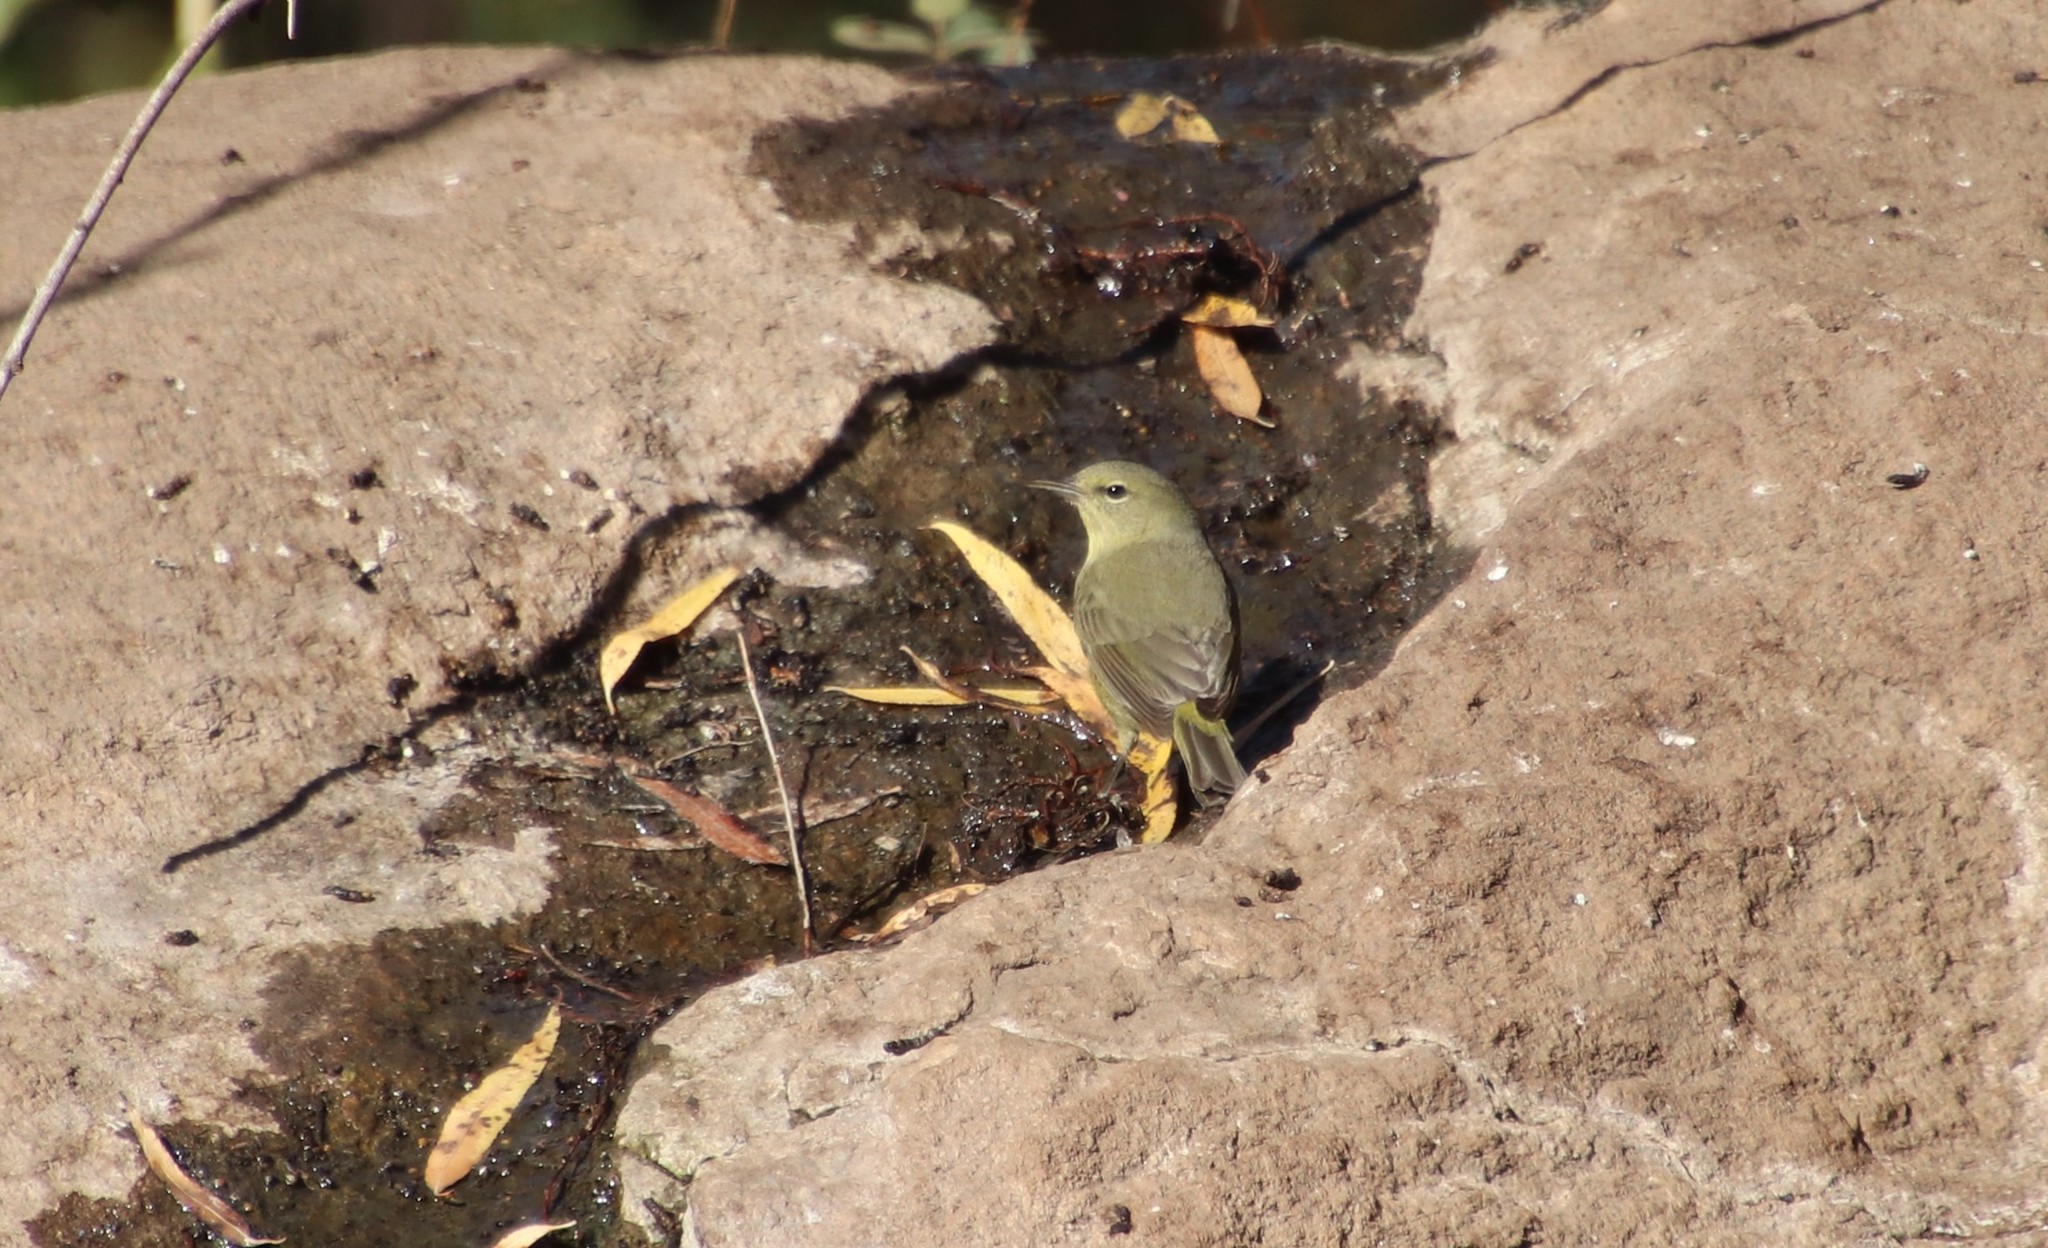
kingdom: Animalia
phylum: Chordata
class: Aves
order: Passeriformes
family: Parulidae
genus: Leiothlypis
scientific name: Leiothlypis celata
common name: Orange-crowned warbler
